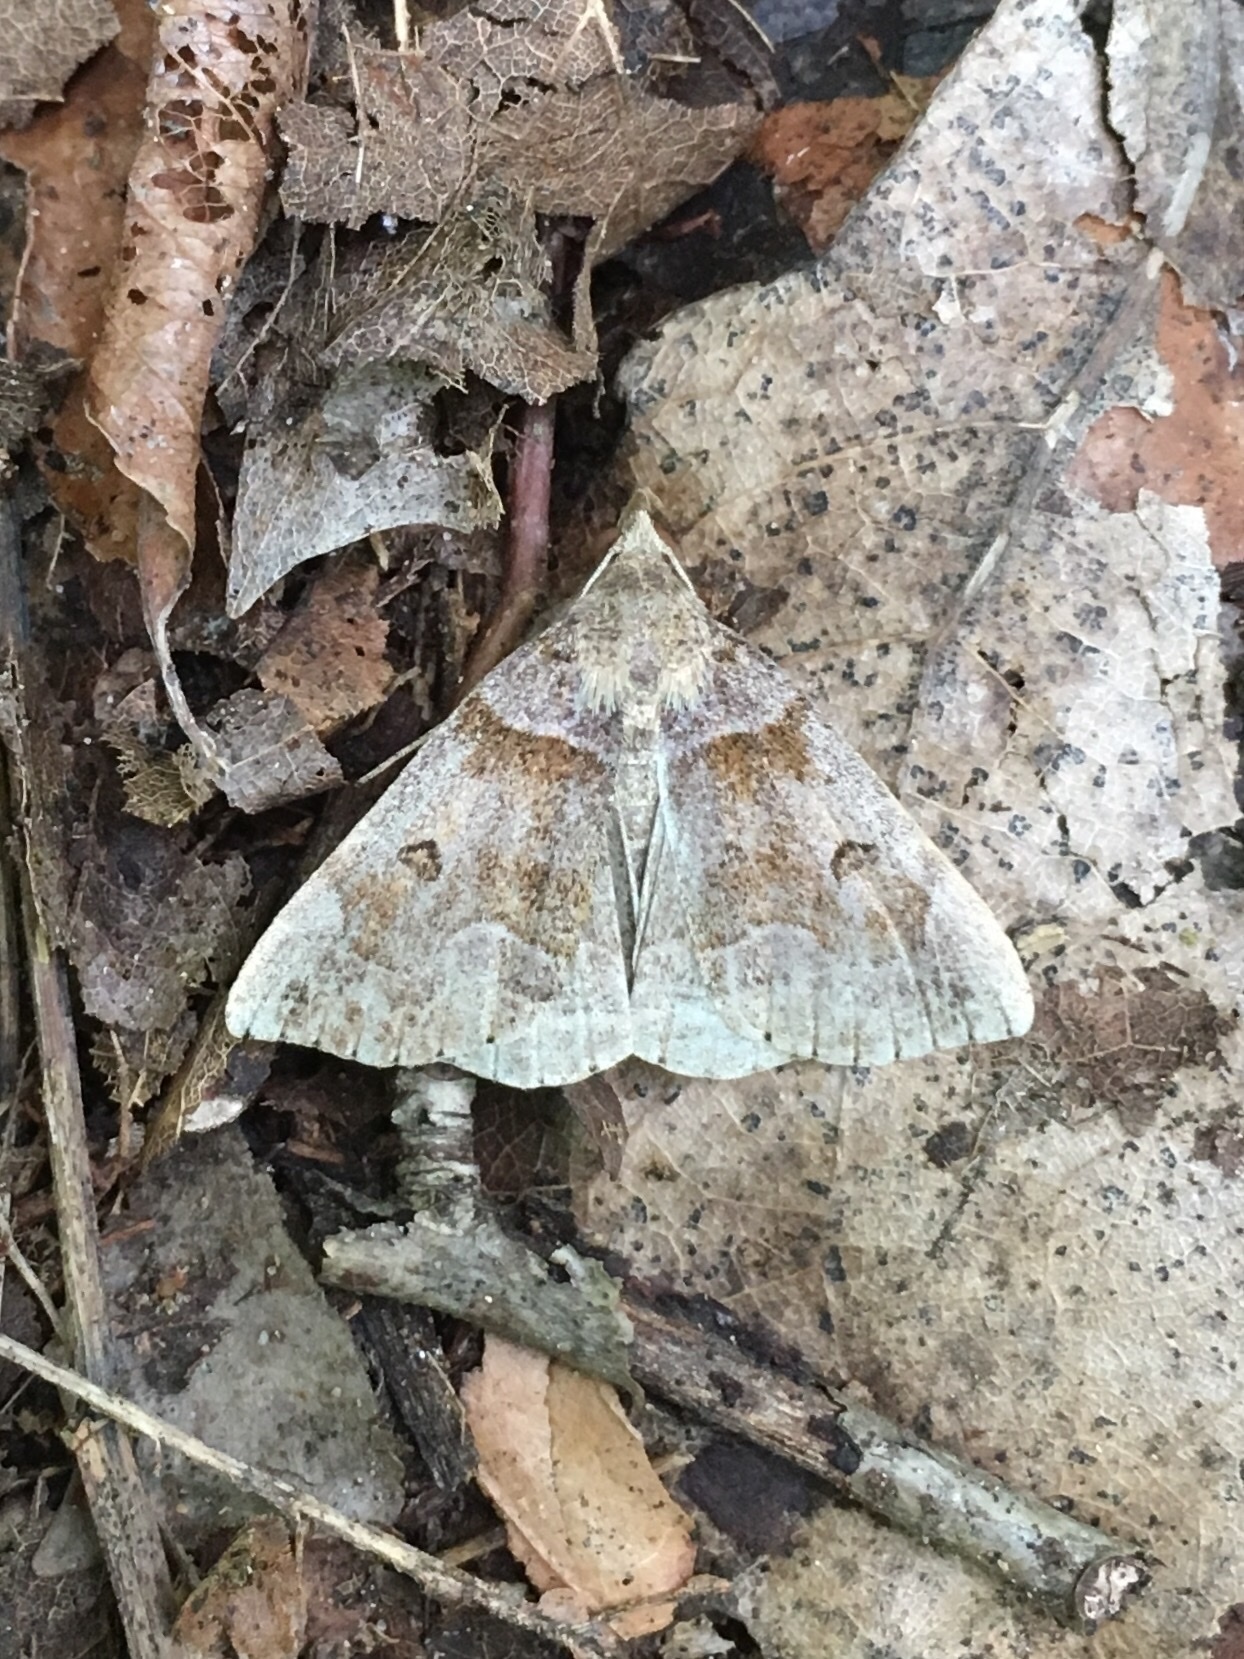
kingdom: Animalia
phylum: Arthropoda
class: Insecta
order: Lepidoptera
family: Erebidae
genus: Zanclognatha
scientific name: Zanclognatha laevigata
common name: Variable fan-foot
